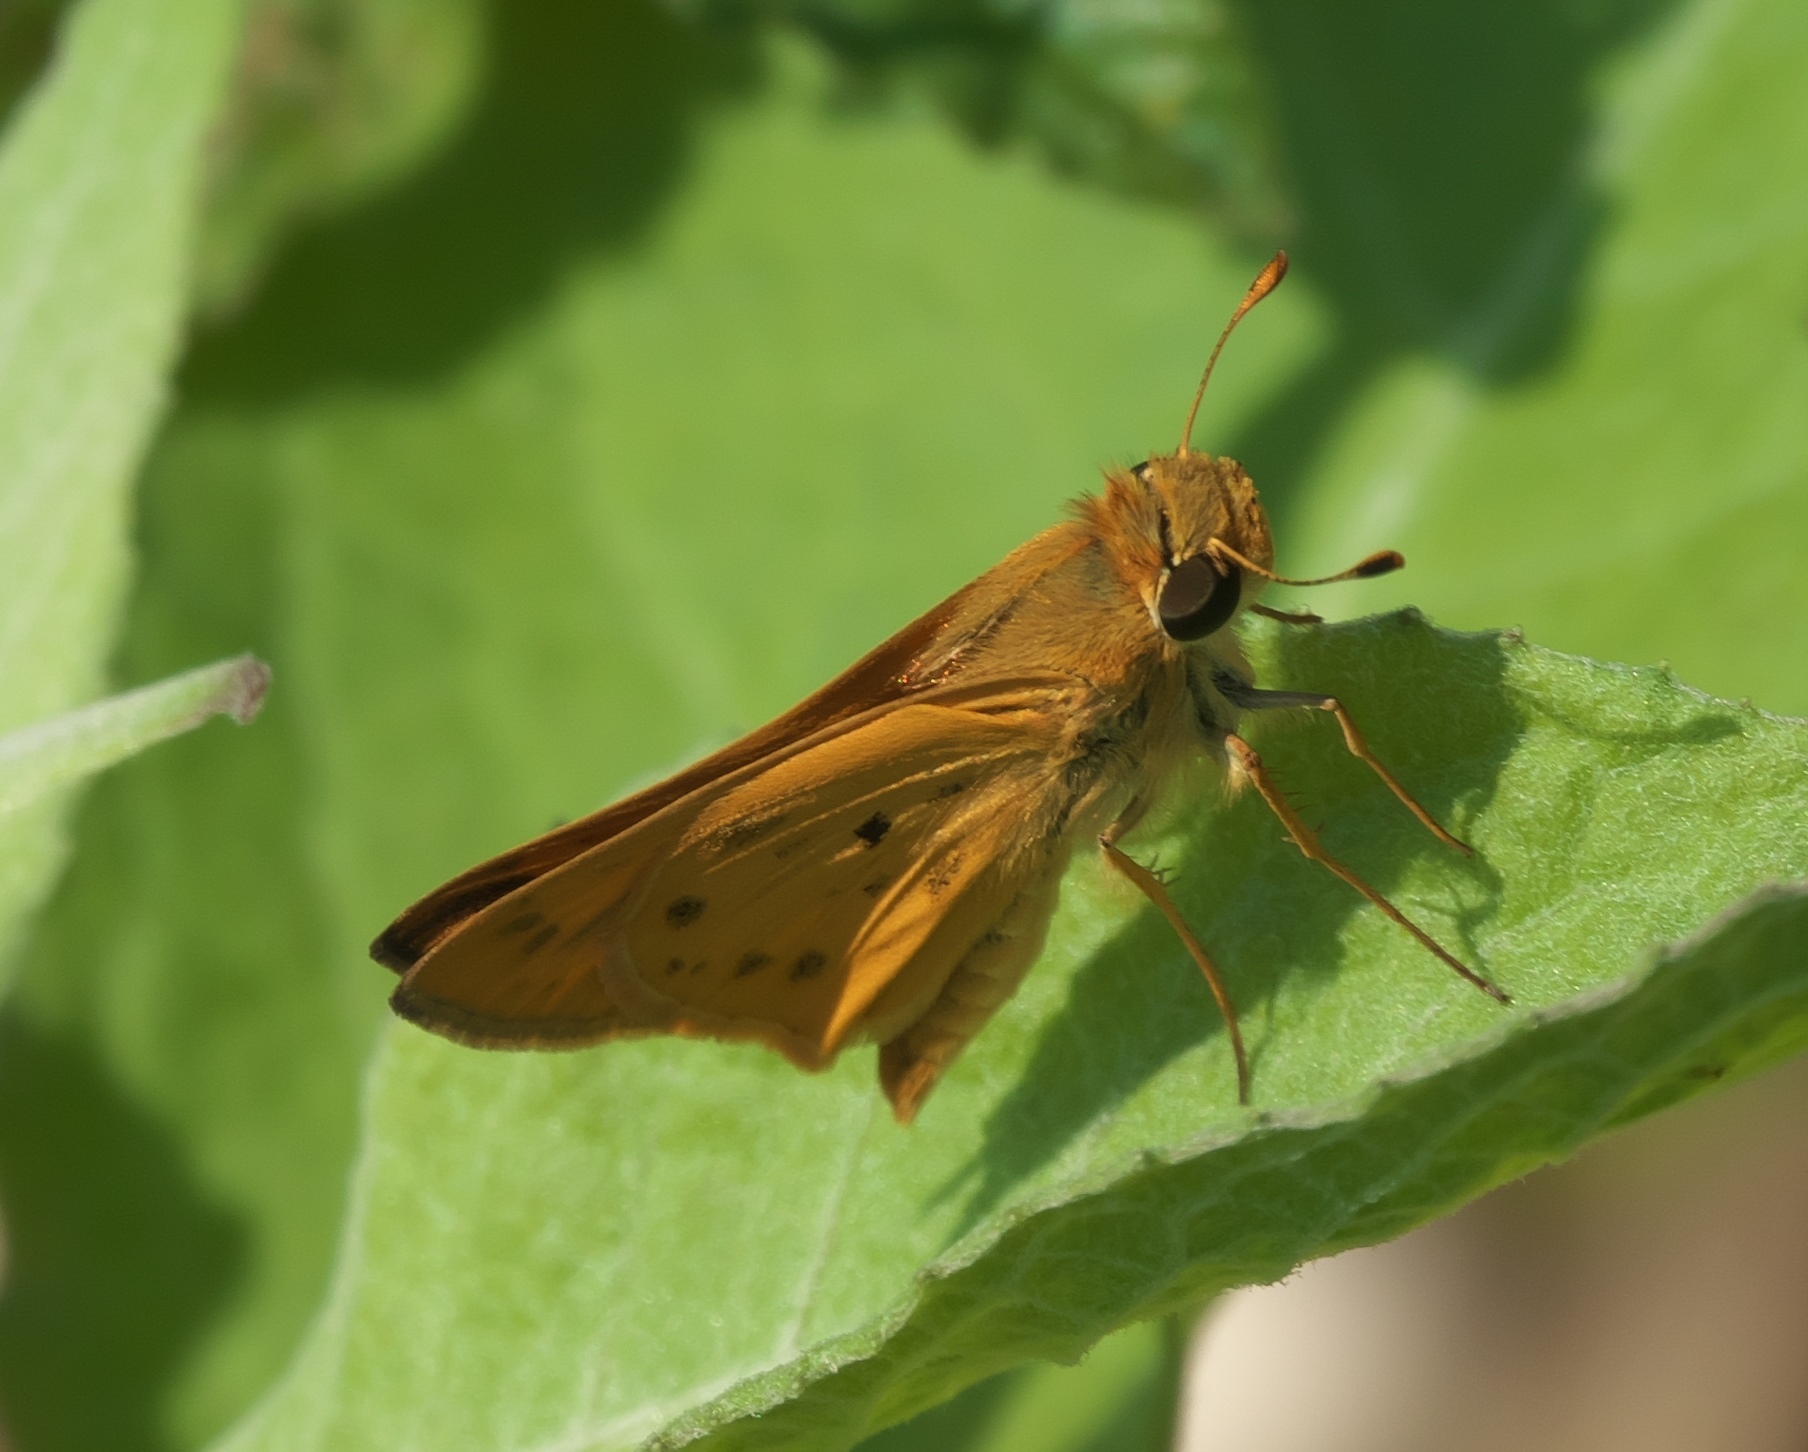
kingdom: Animalia
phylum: Arthropoda
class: Insecta
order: Lepidoptera
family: Hesperiidae
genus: Hylephila
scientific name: Hylephila phyleus
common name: Fiery skipper
